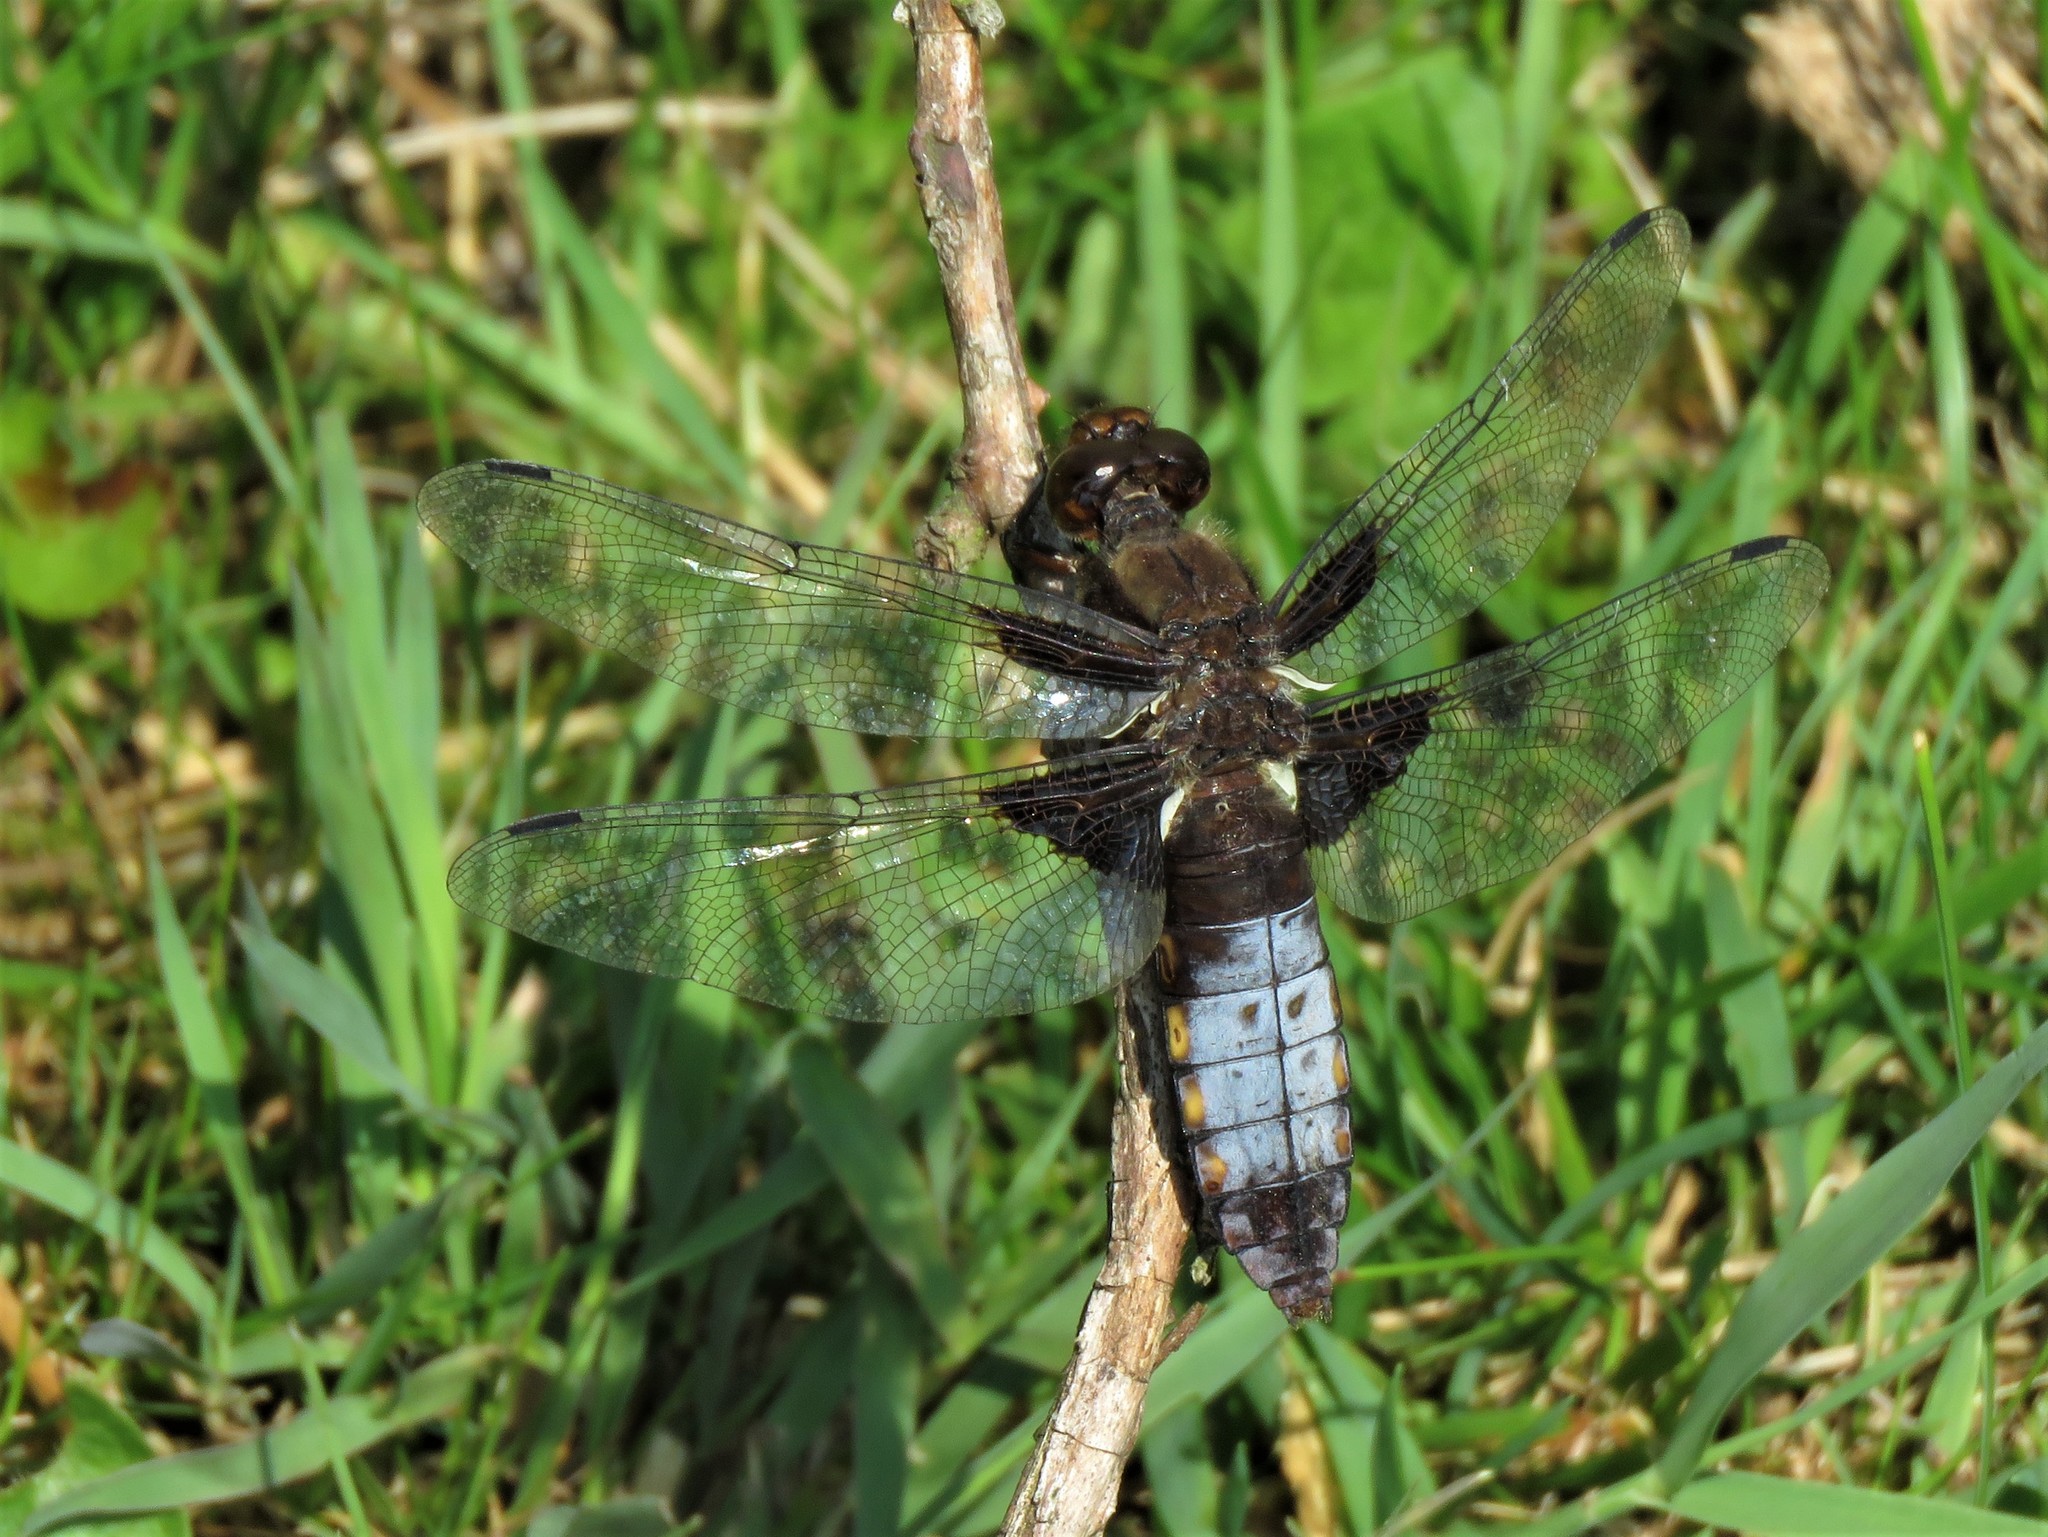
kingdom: Animalia
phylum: Arthropoda
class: Insecta
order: Odonata
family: Libellulidae
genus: Libellula
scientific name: Libellula depressa
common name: Broad-bodied chaser
